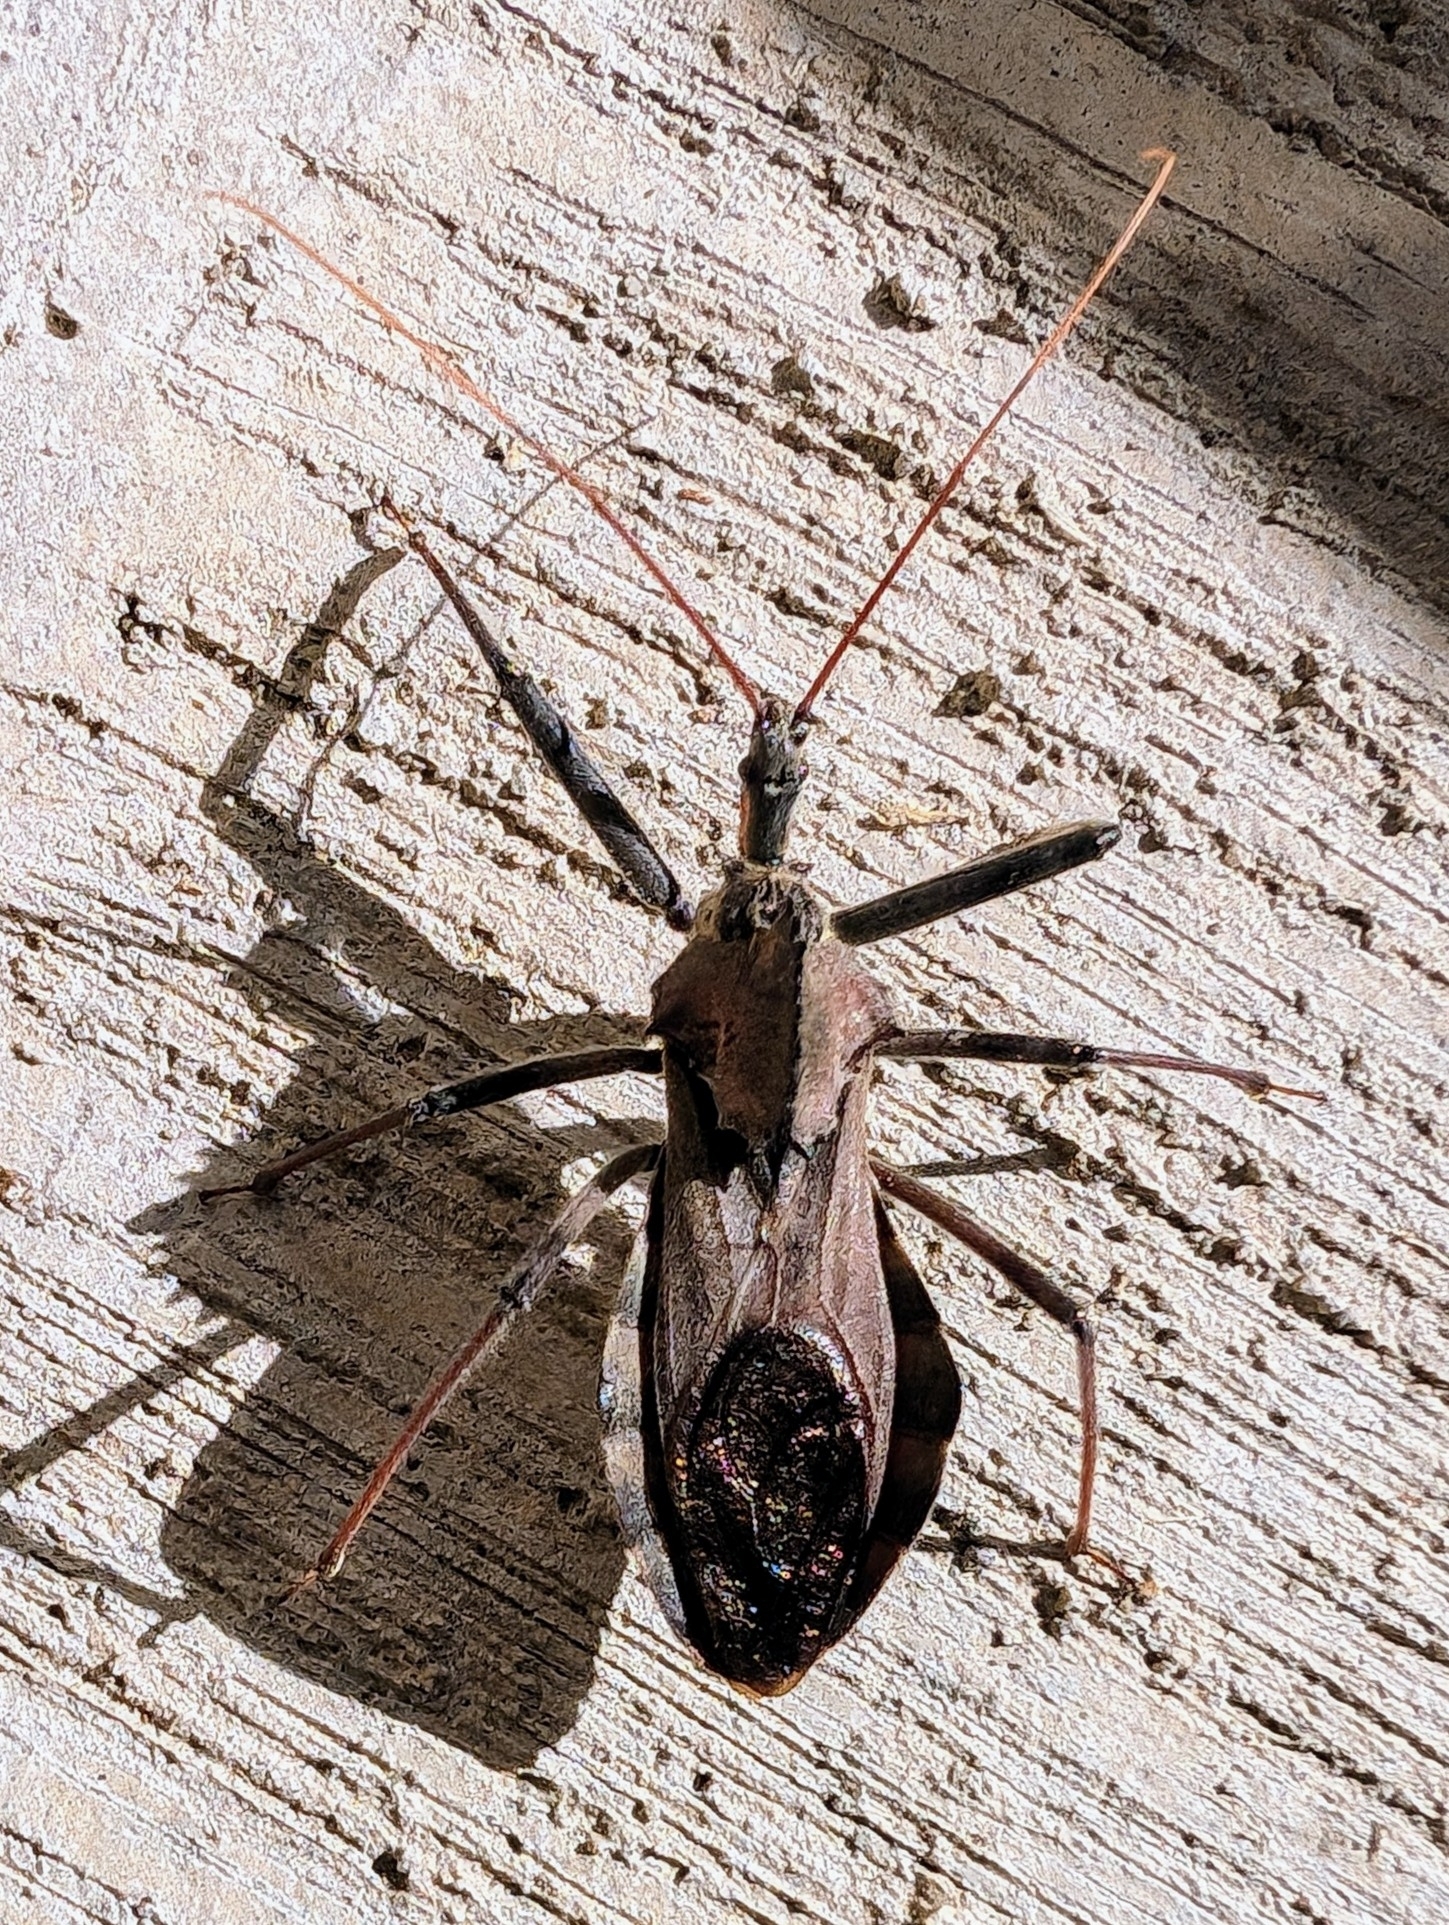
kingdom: Animalia
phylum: Arthropoda
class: Insecta
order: Hemiptera
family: Reduviidae
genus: Arilus
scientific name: Arilus cristatus
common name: North american wheel bug
